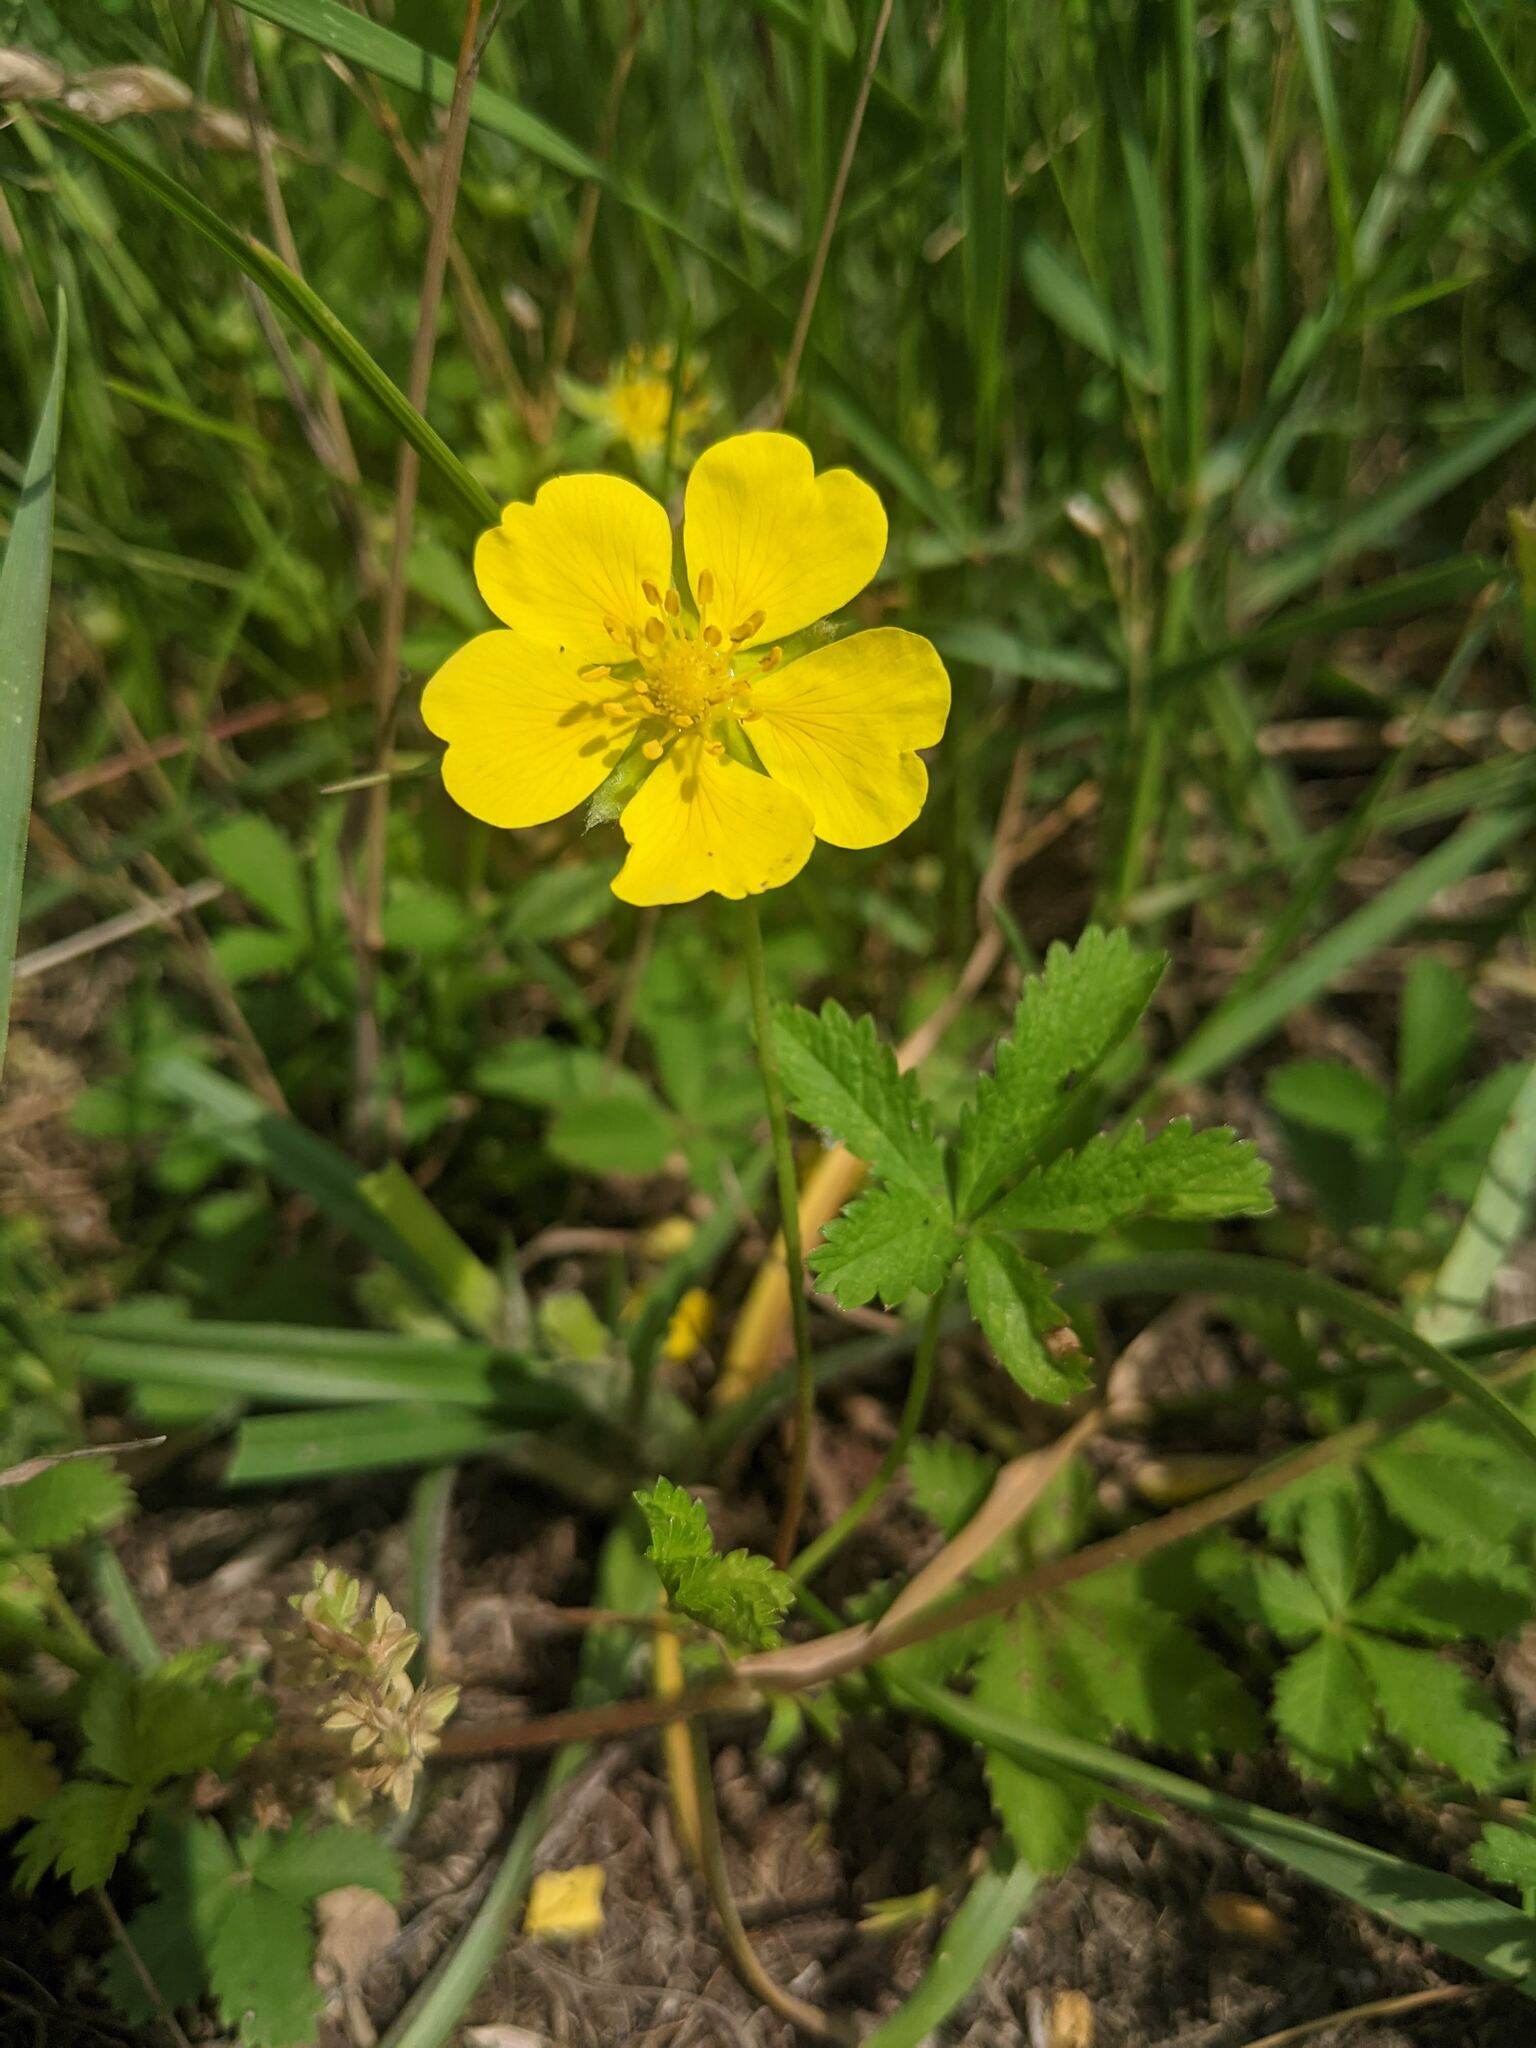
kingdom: Plantae
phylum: Tracheophyta
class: Magnoliopsida
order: Rosales
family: Rosaceae
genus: Potentilla
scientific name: Potentilla reptans
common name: Creeping cinquefoil
